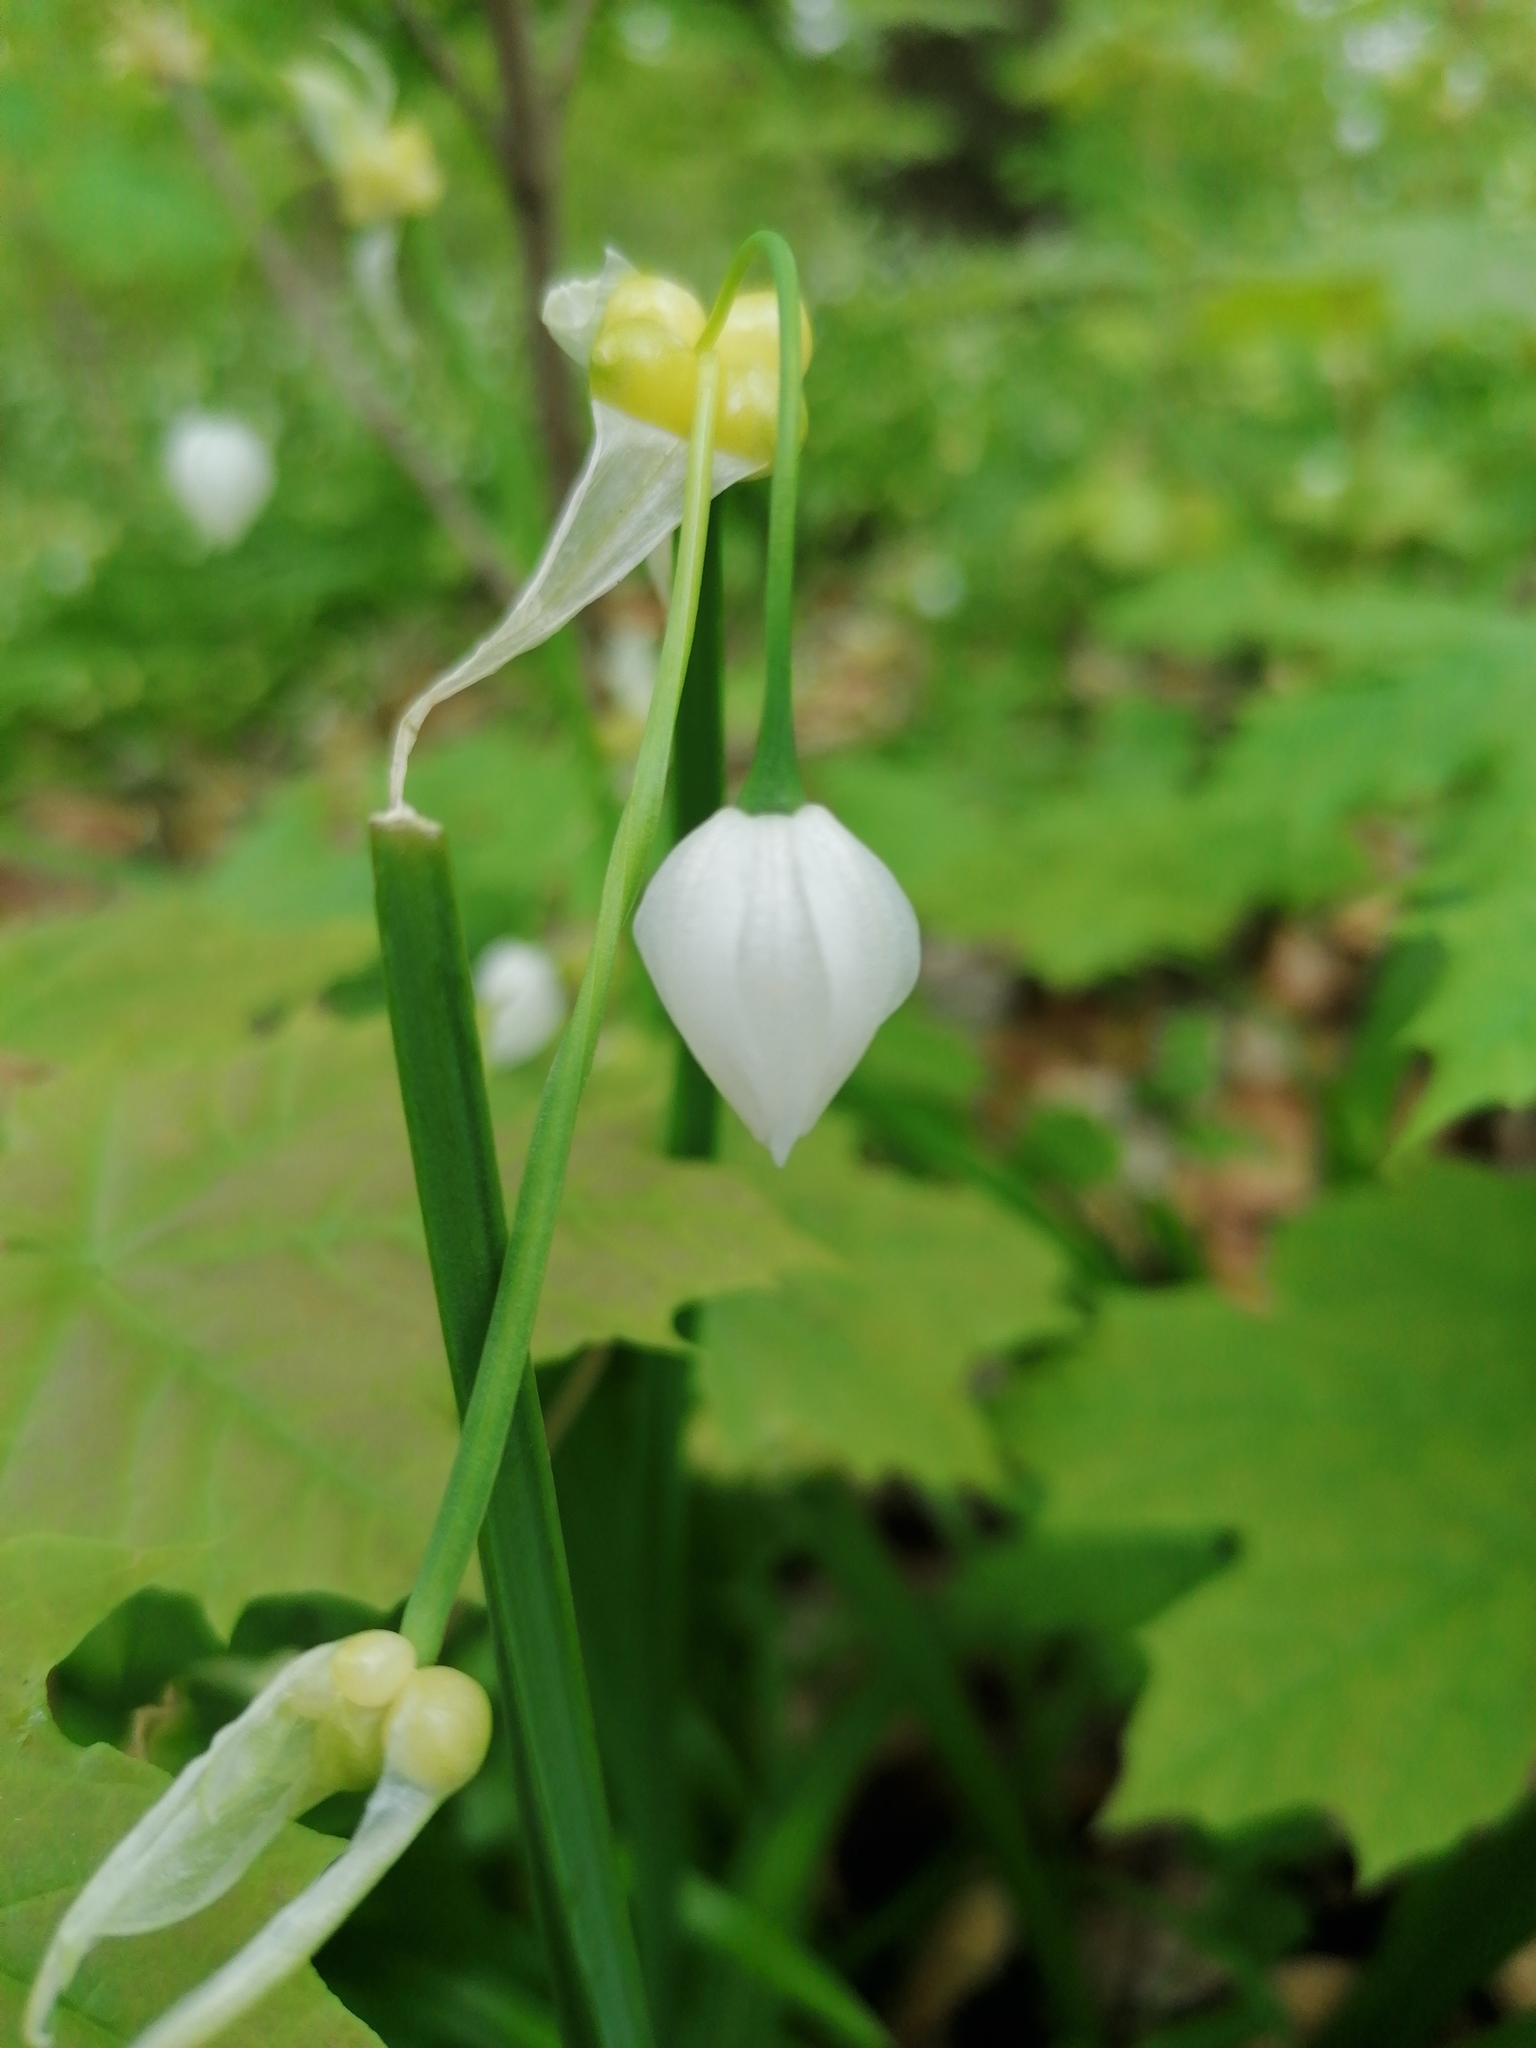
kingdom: Plantae
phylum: Tracheophyta
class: Liliopsida
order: Asparagales
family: Amaryllidaceae
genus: Allium
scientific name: Allium paradoxum
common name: Few-flowered garlic
